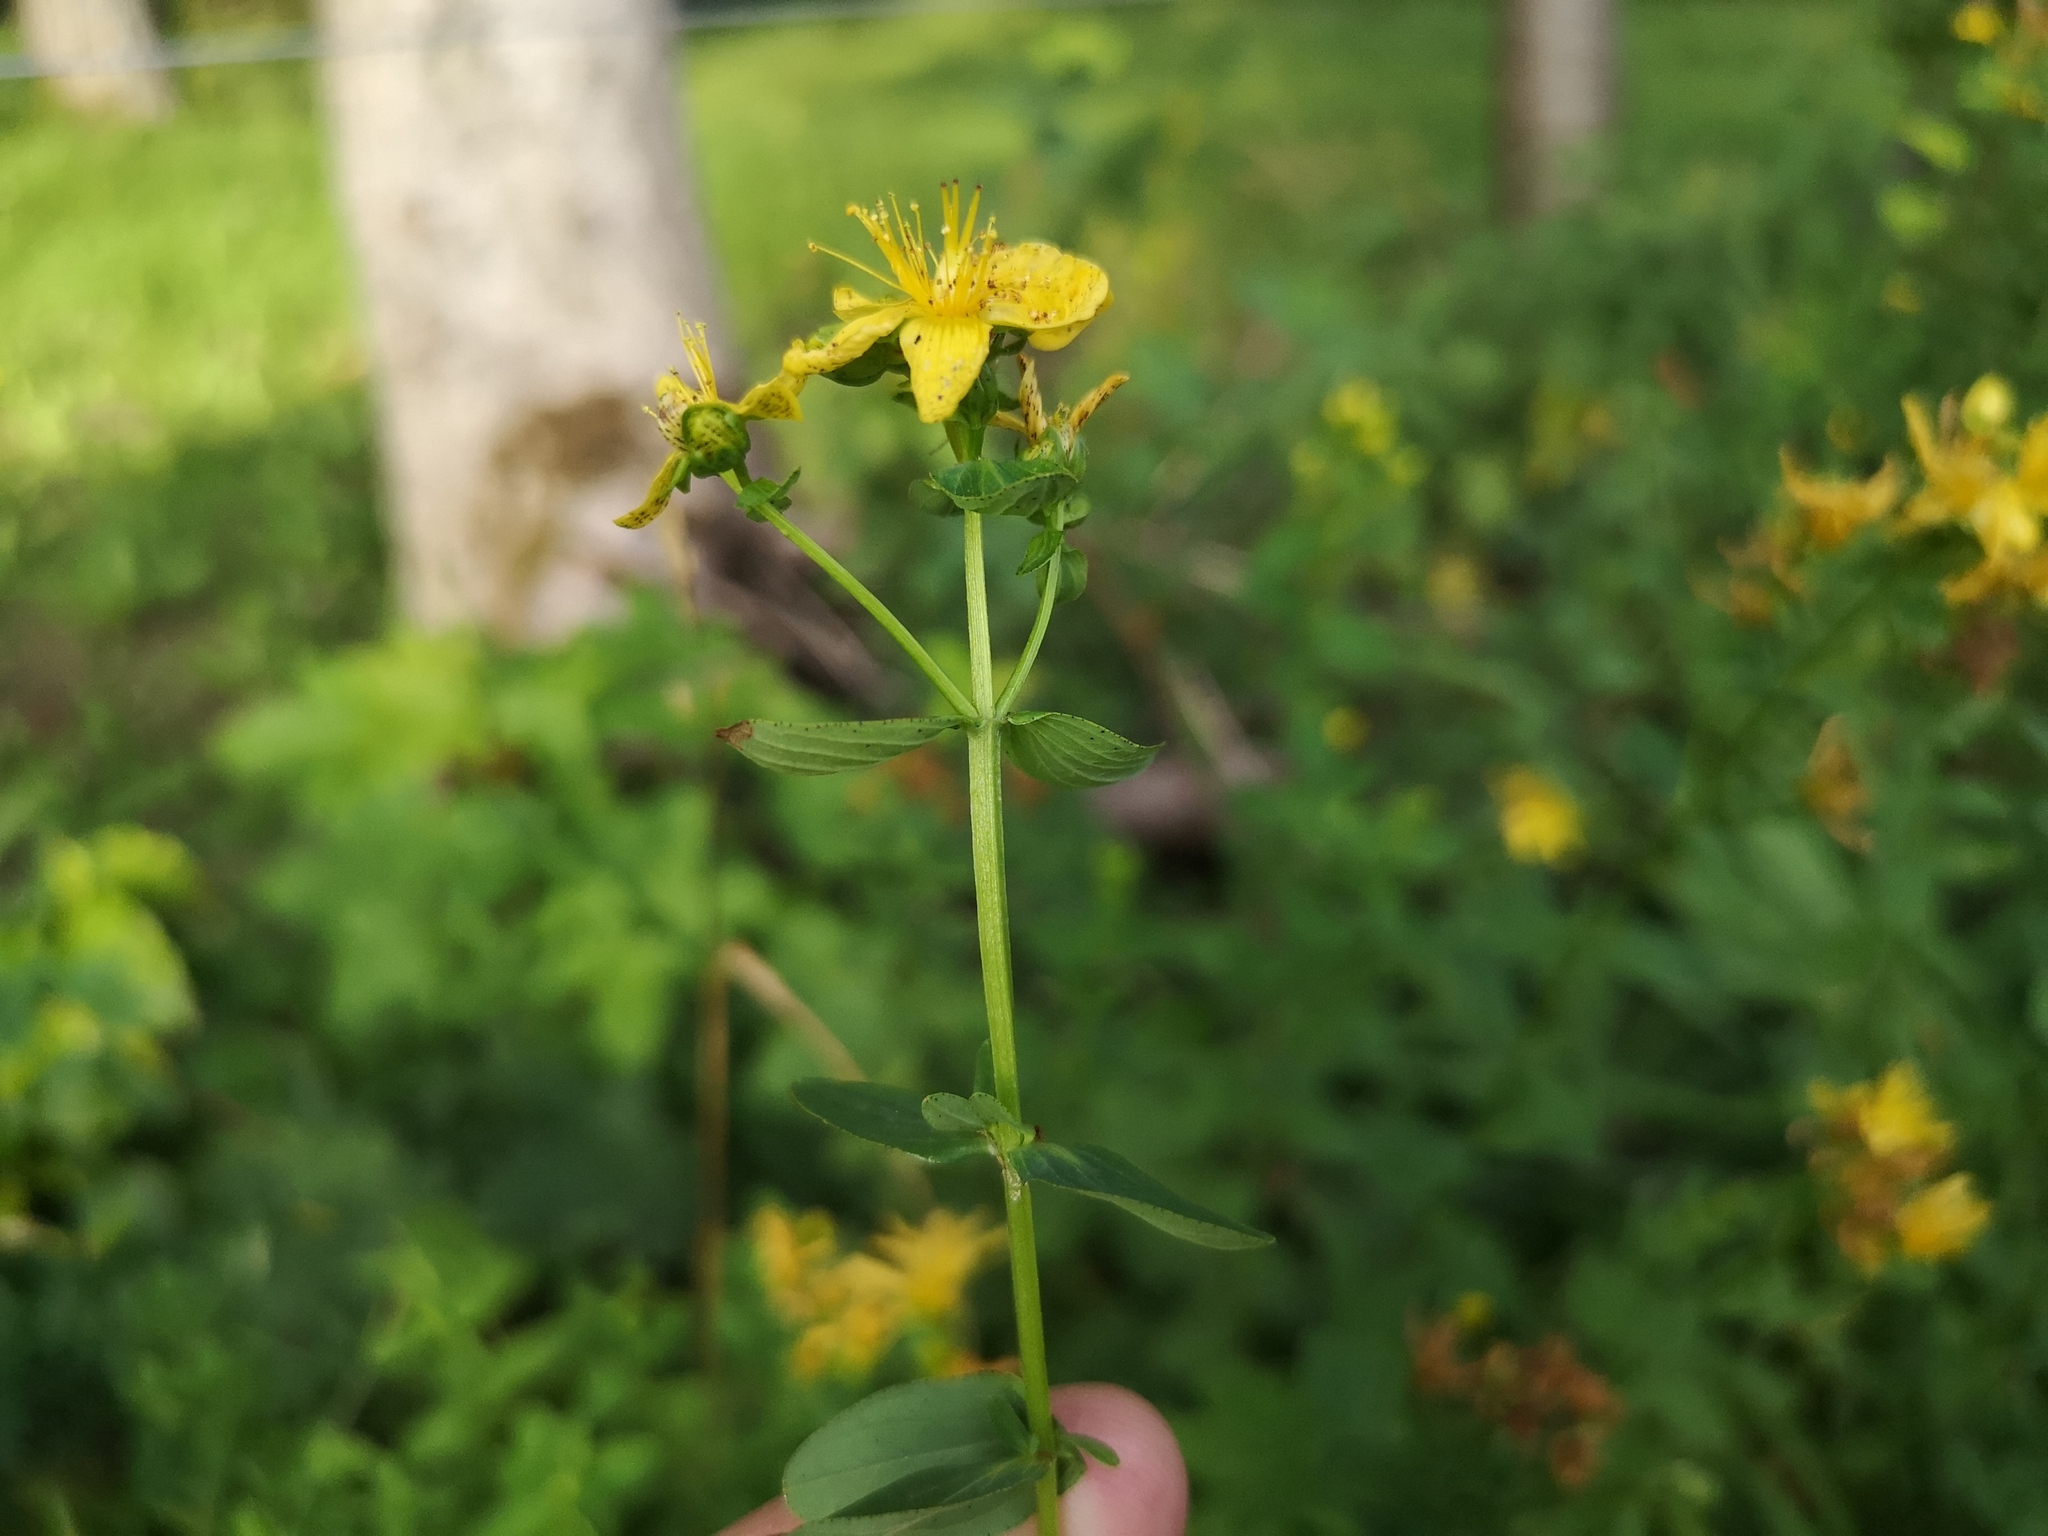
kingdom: Plantae
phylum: Tracheophyta
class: Magnoliopsida
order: Malpighiales
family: Hypericaceae
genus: Hypericum
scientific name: Hypericum maculatum
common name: Imperforate st. john's-wort
